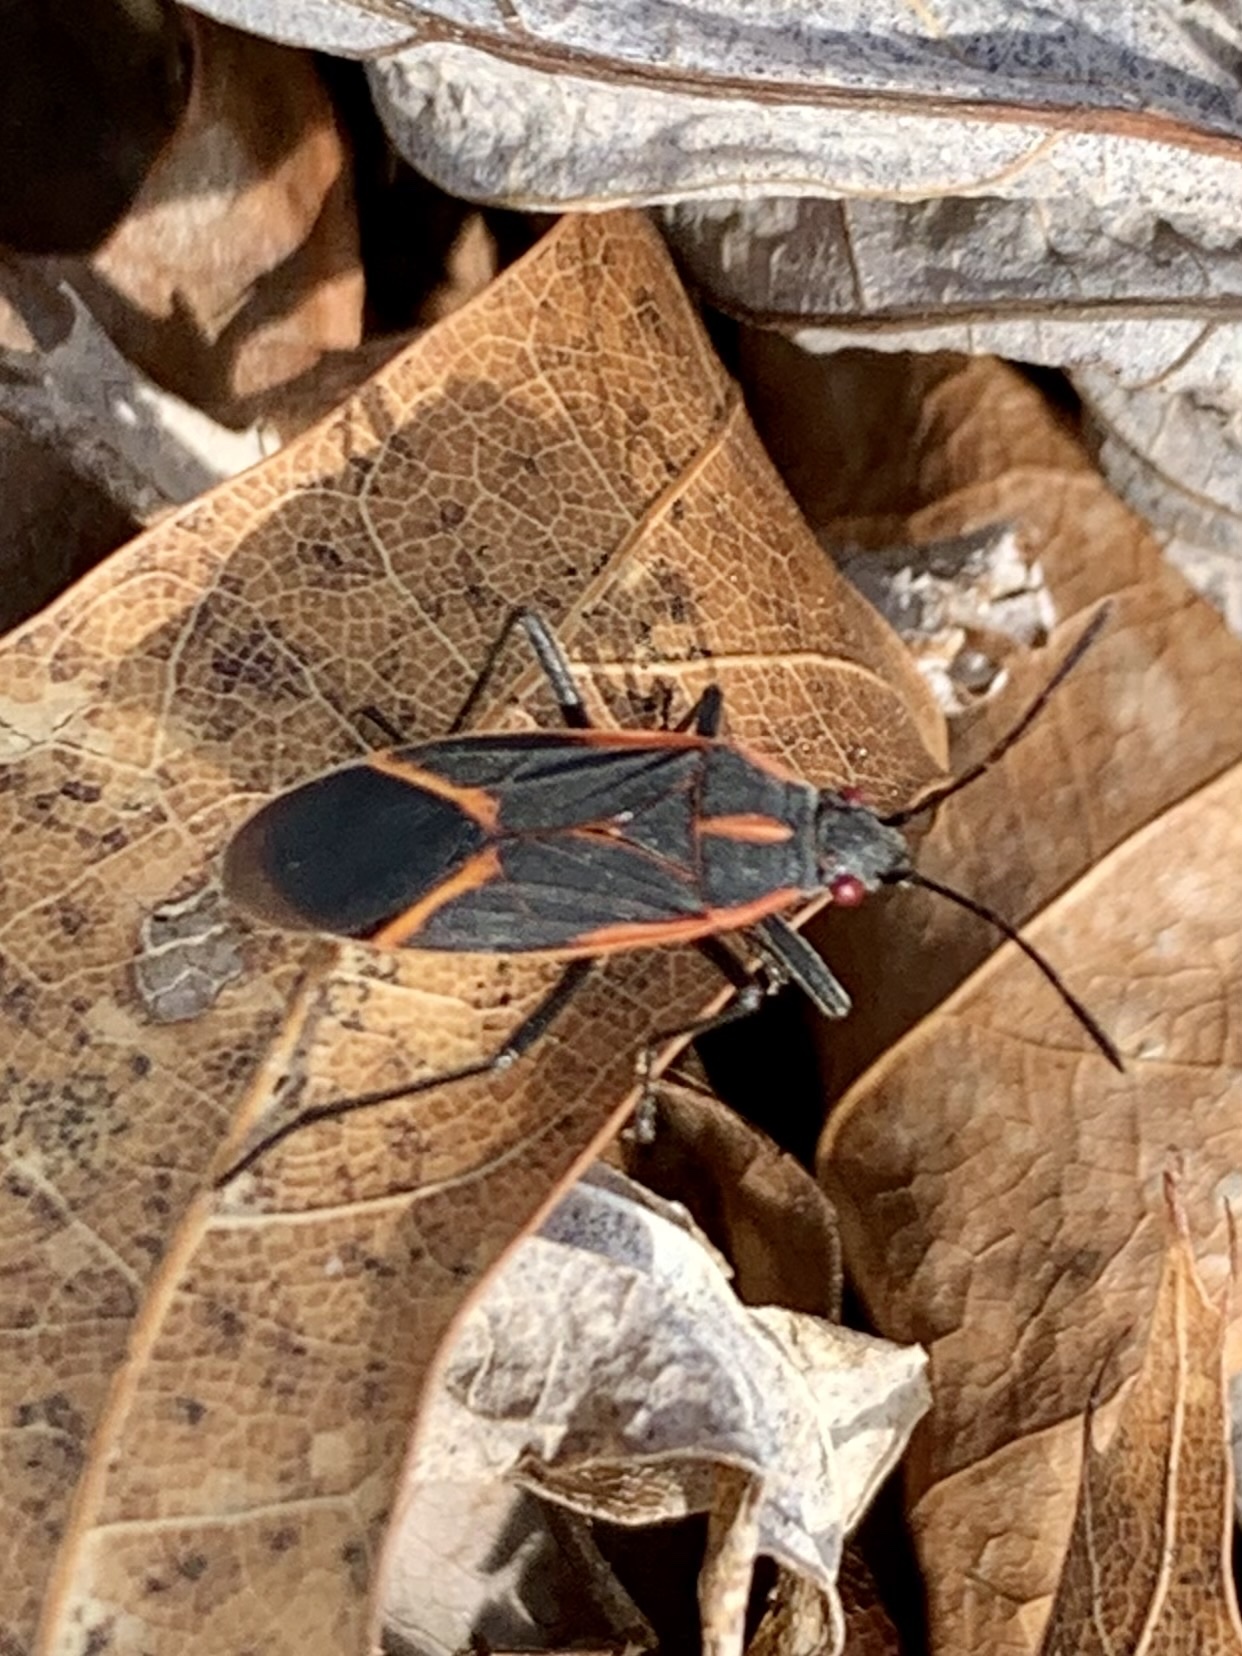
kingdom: Animalia
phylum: Arthropoda
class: Insecta
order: Hemiptera
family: Rhopalidae
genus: Boisea
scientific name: Boisea trivittata
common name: Boxelder bug
